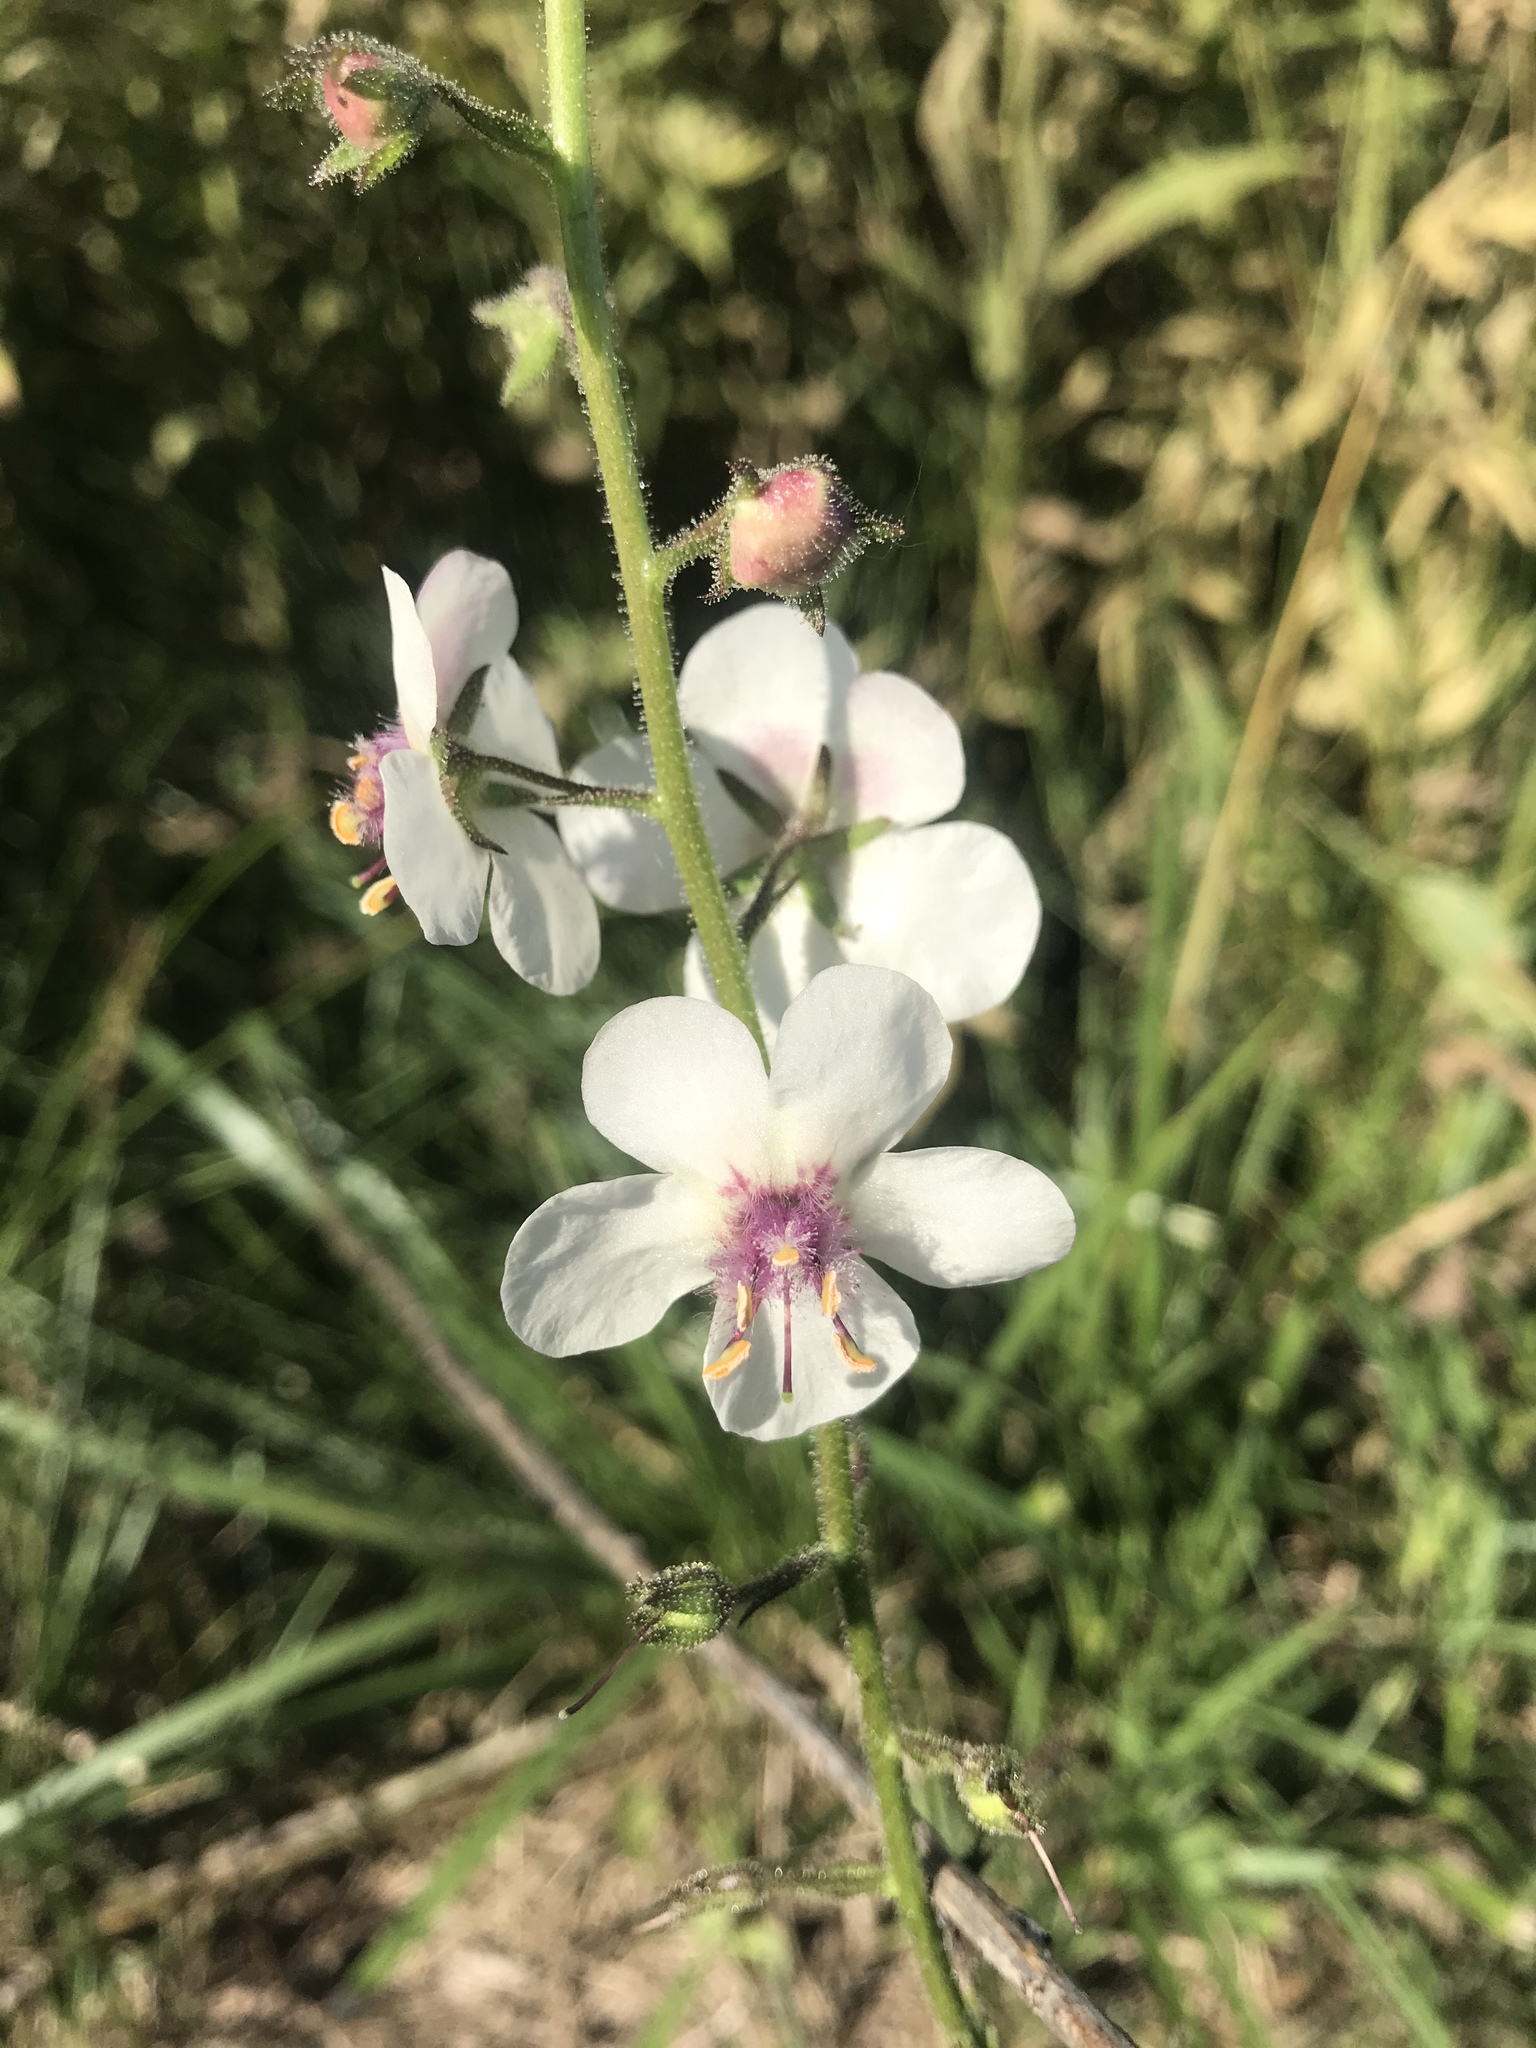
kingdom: Plantae
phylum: Tracheophyta
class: Magnoliopsida
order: Lamiales
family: Scrophulariaceae
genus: Verbascum
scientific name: Verbascum blattaria
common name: Moth mullein
